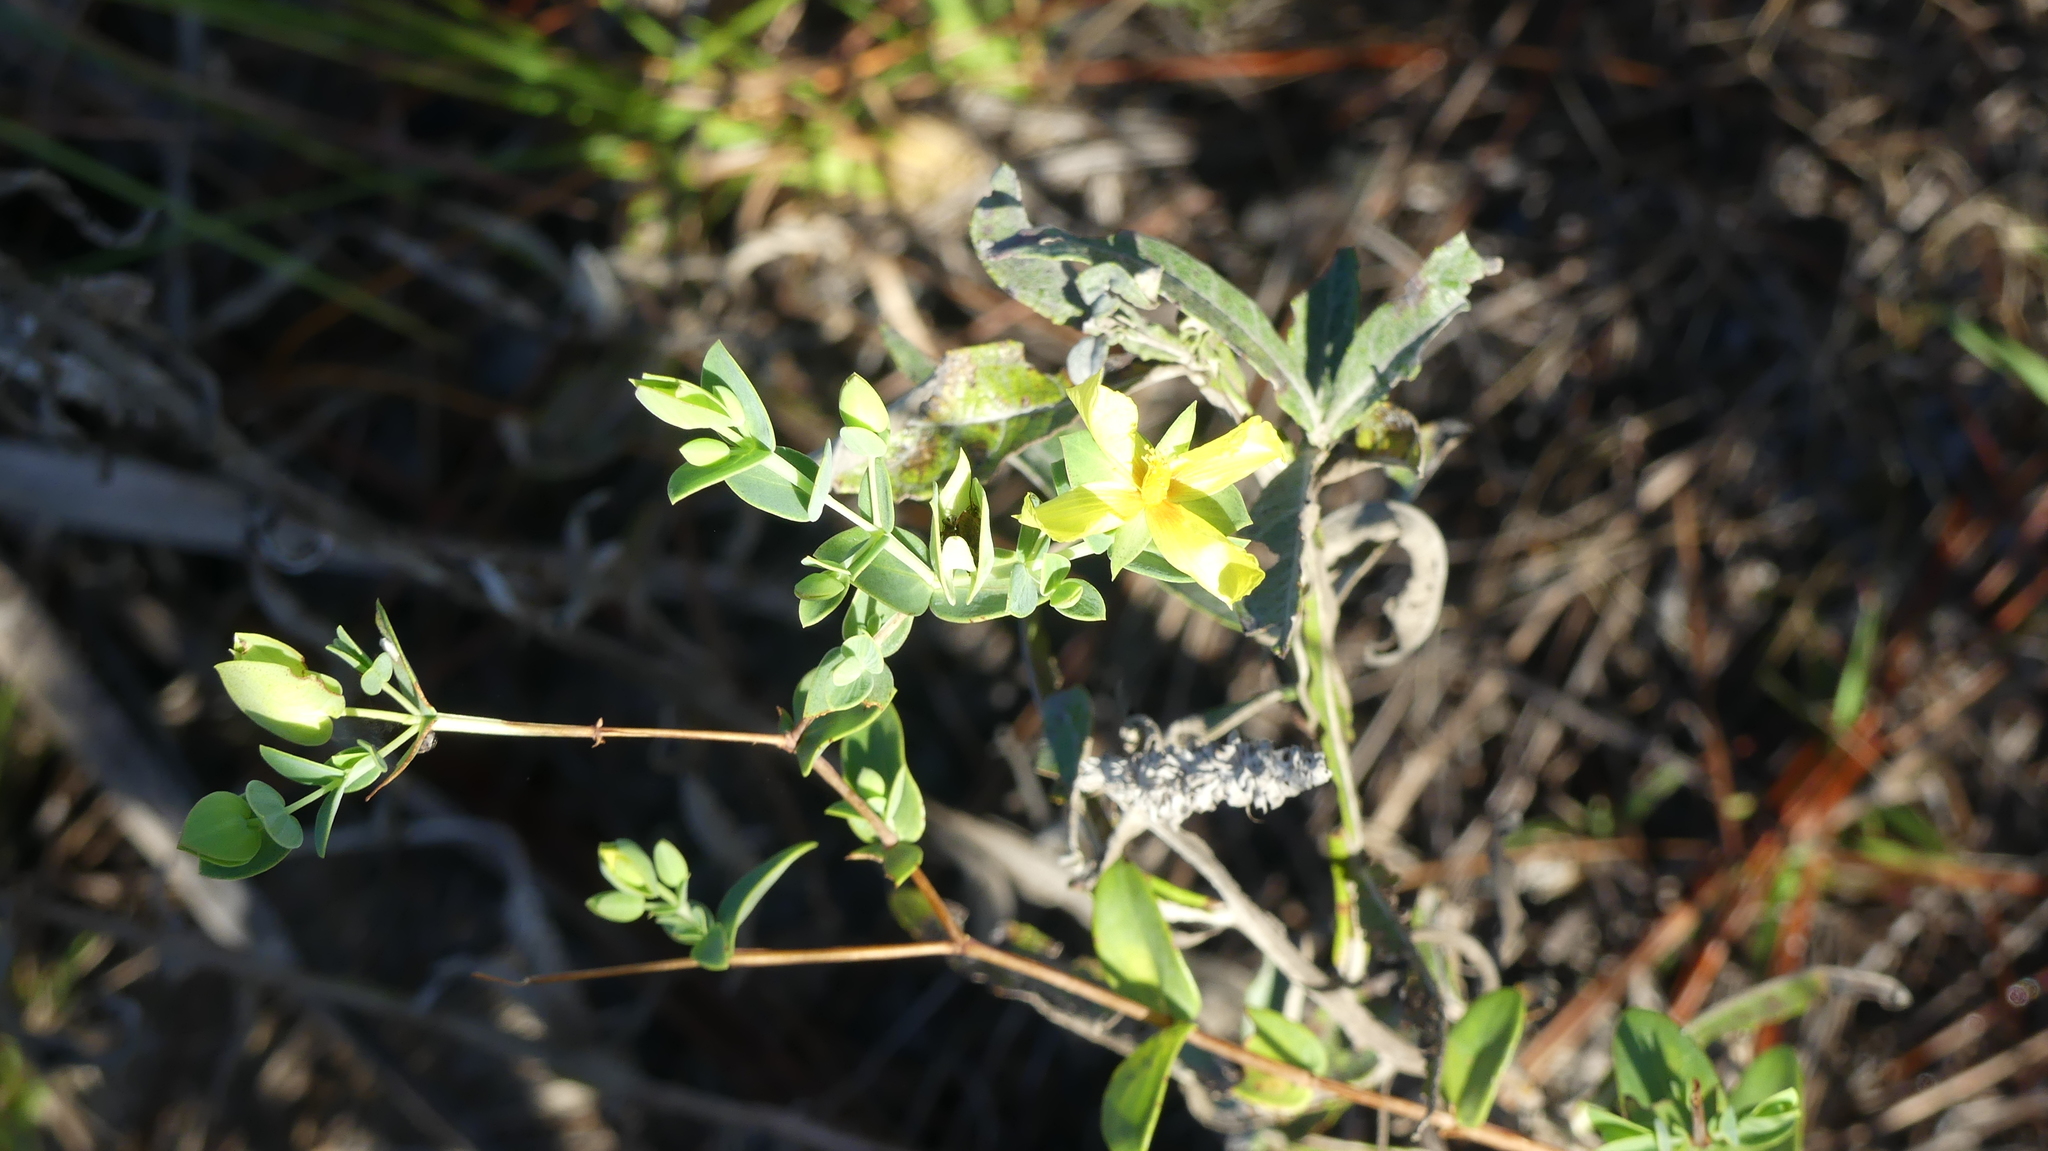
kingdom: Plantae
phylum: Tracheophyta
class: Magnoliopsida
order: Malpighiales
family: Hypericaceae
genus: Hypericum
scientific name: Hypericum tetrapetalum
